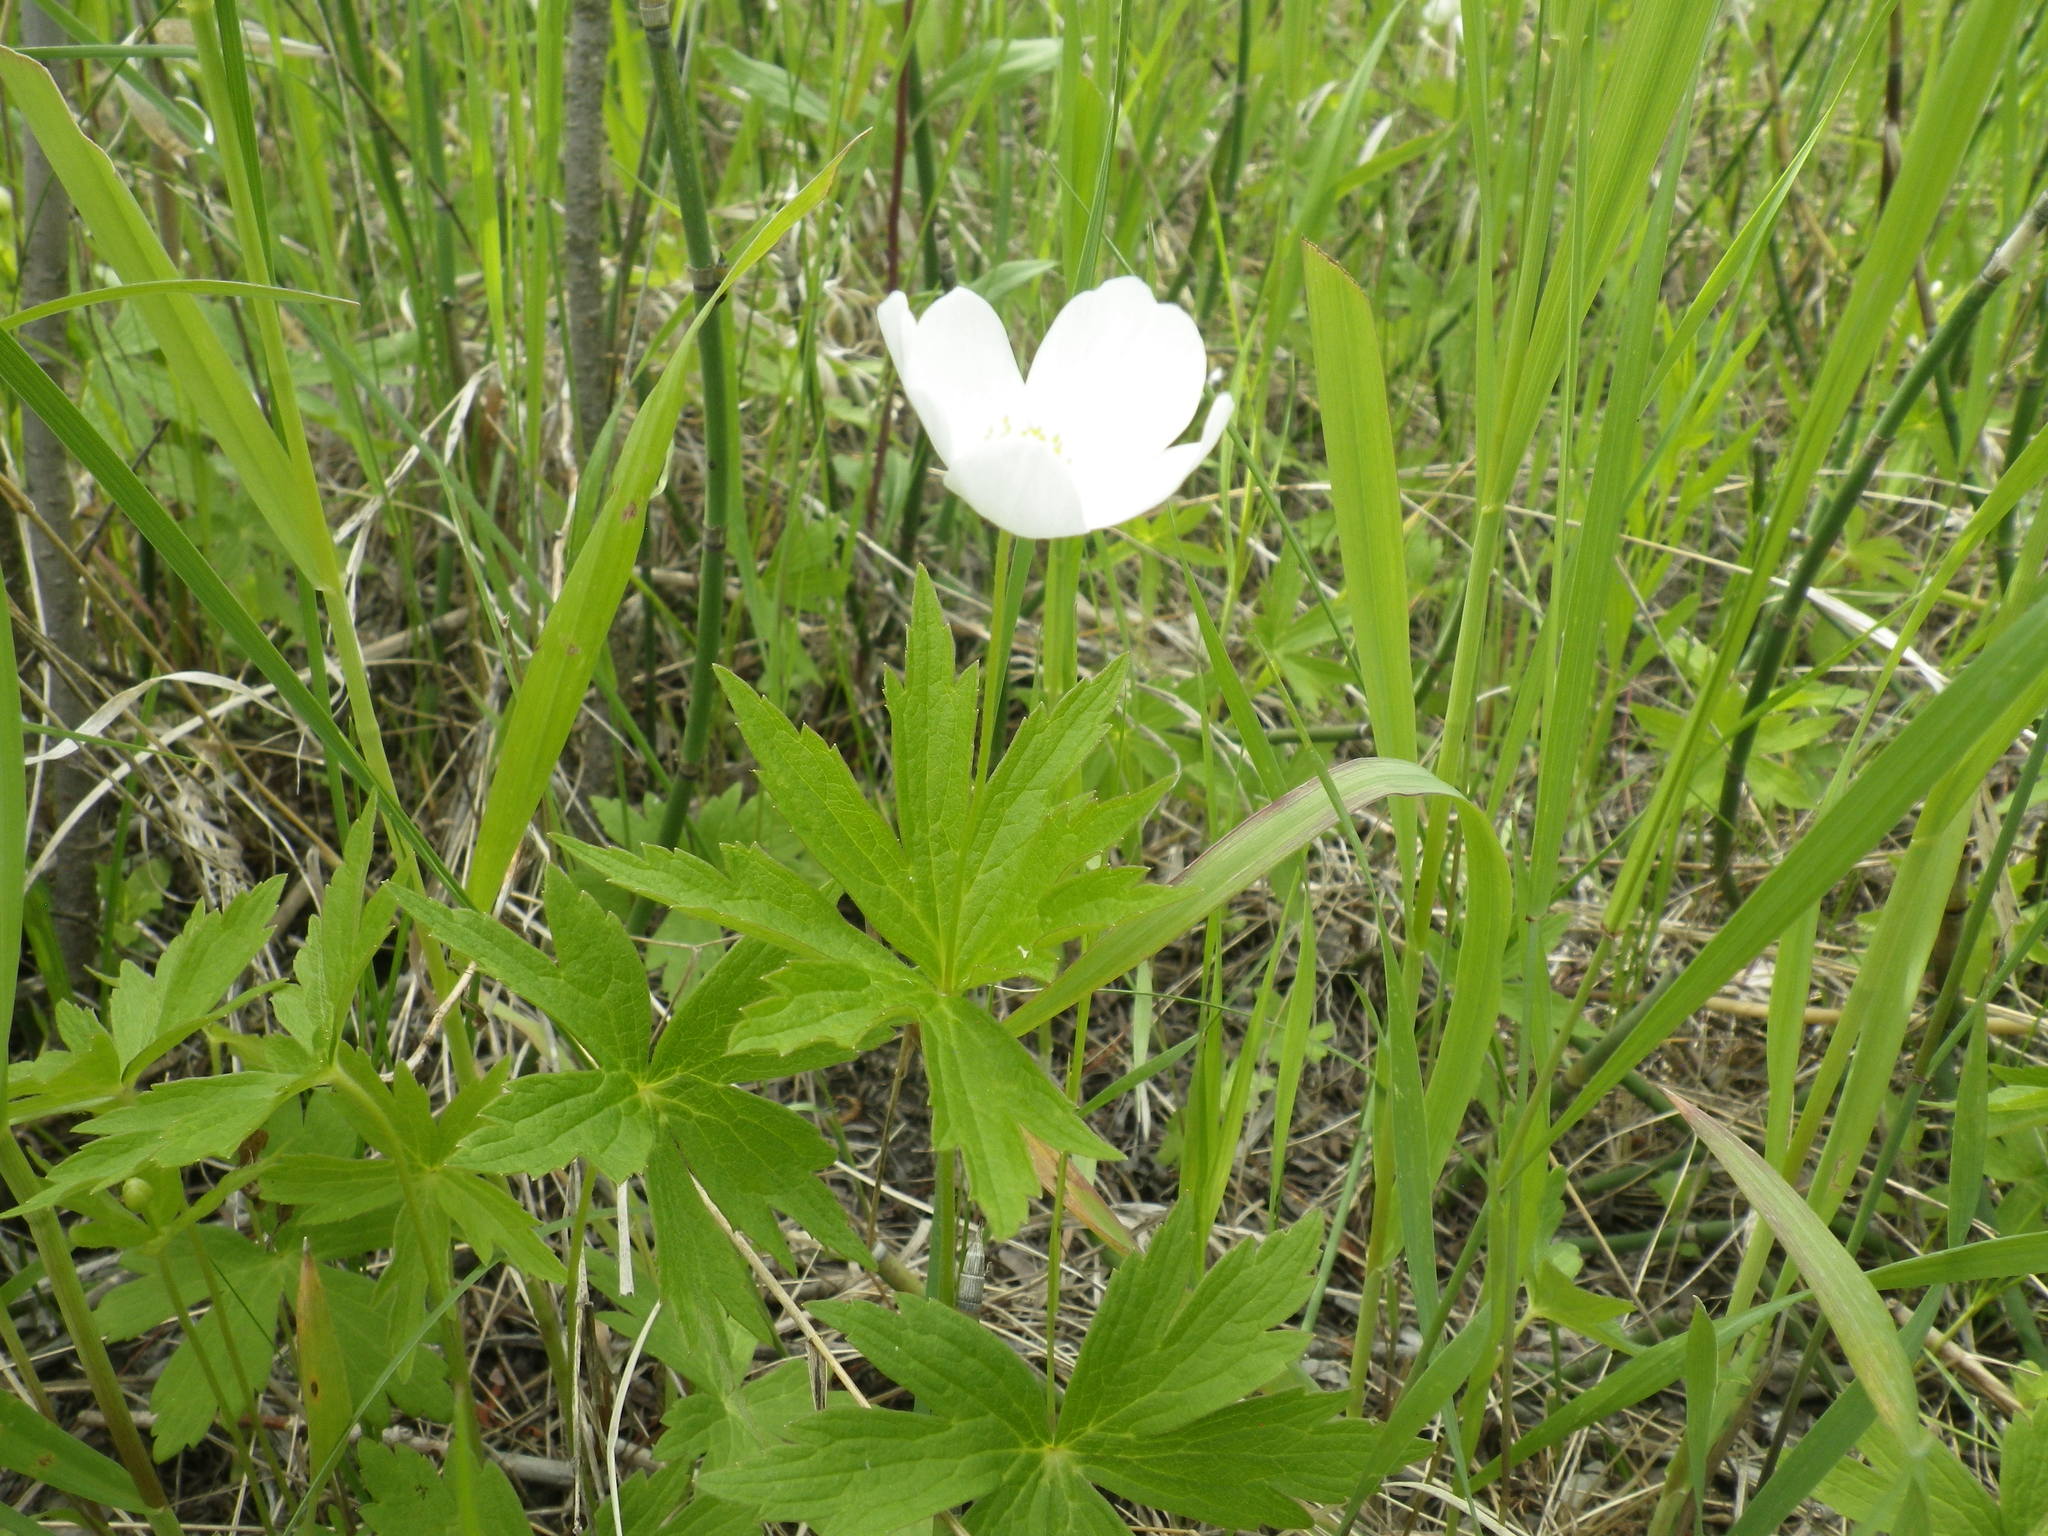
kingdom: Plantae
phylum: Tracheophyta
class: Magnoliopsida
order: Ranunculales
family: Ranunculaceae
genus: Anemonastrum
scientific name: Anemonastrum canadense
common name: Canada anemone
